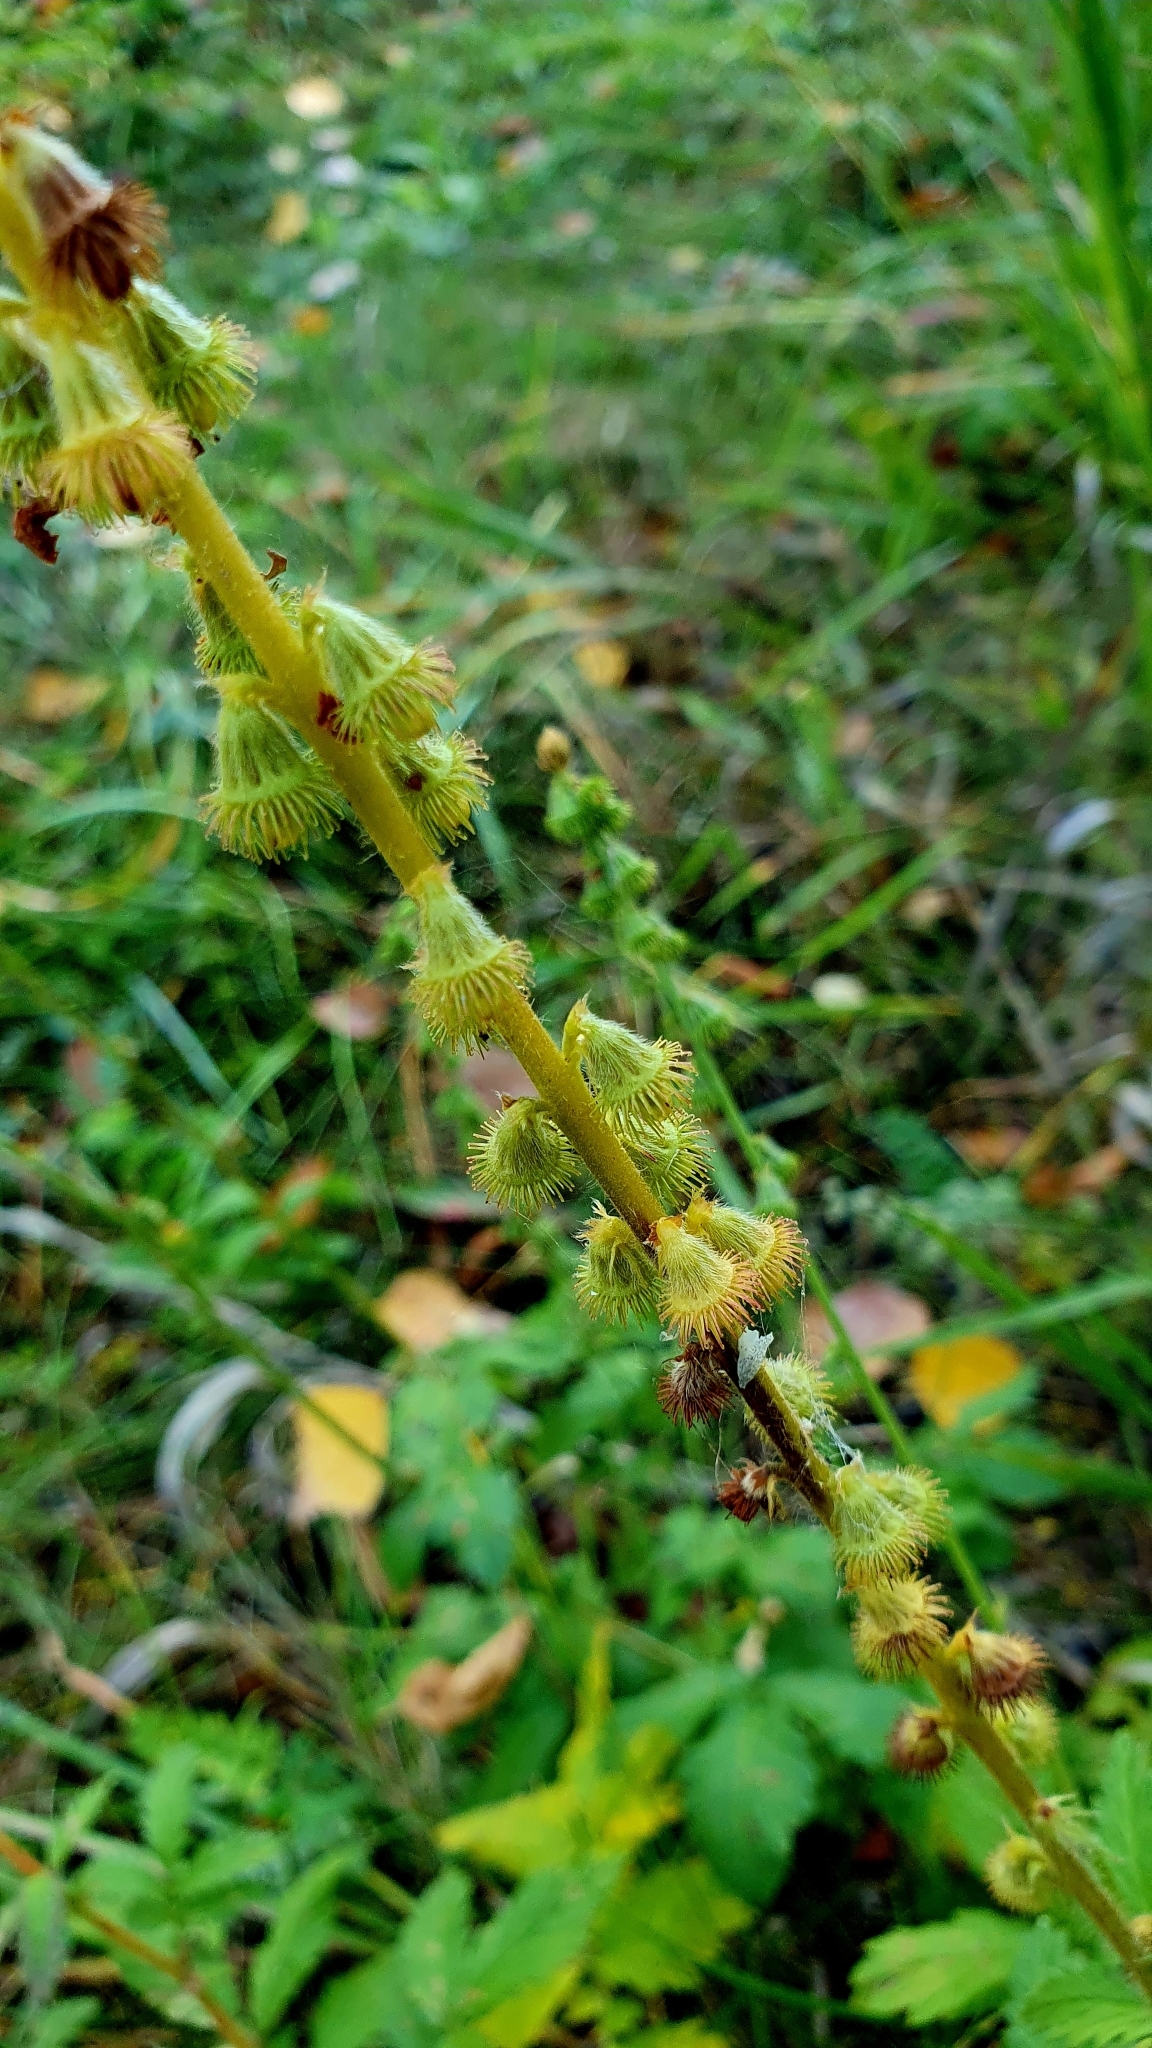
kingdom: Plantae
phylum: Tracheophyta
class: Magnoliopsida
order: Rosales
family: Rosaceae
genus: Agrimonia
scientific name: Agrimonia eupatoria
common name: Agrimony
